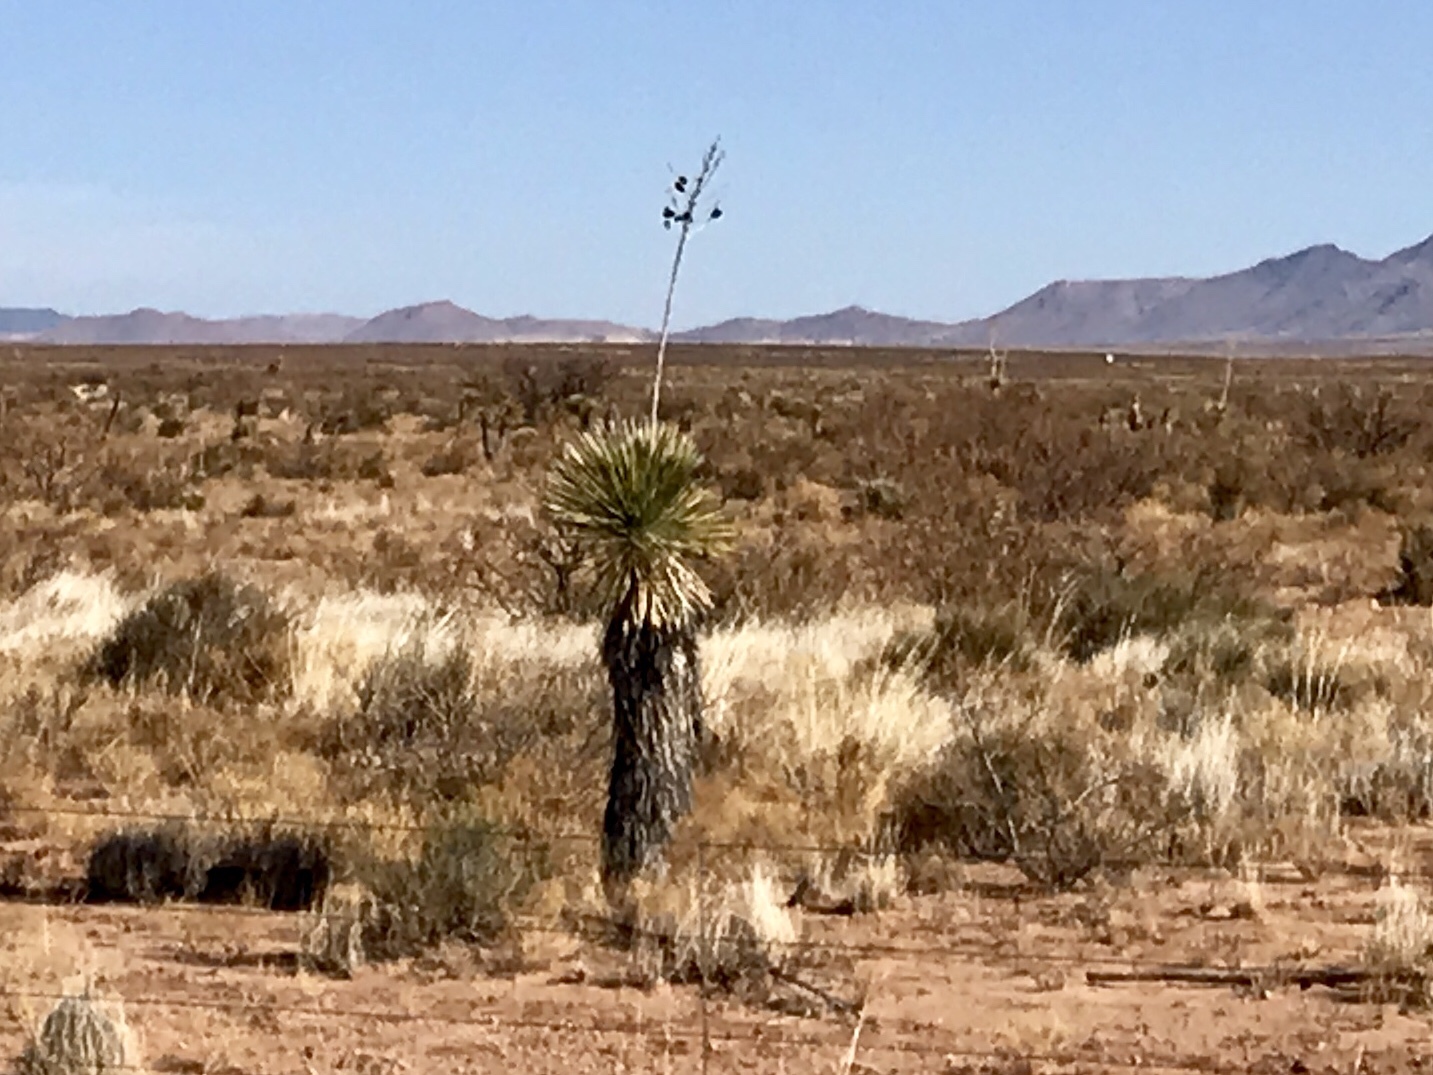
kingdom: Plantae
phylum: Tracheophyta
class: Liliopsida
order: Asparagales
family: Asparagaceae
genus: Yucca
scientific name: Yucca elata
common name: Palmella
